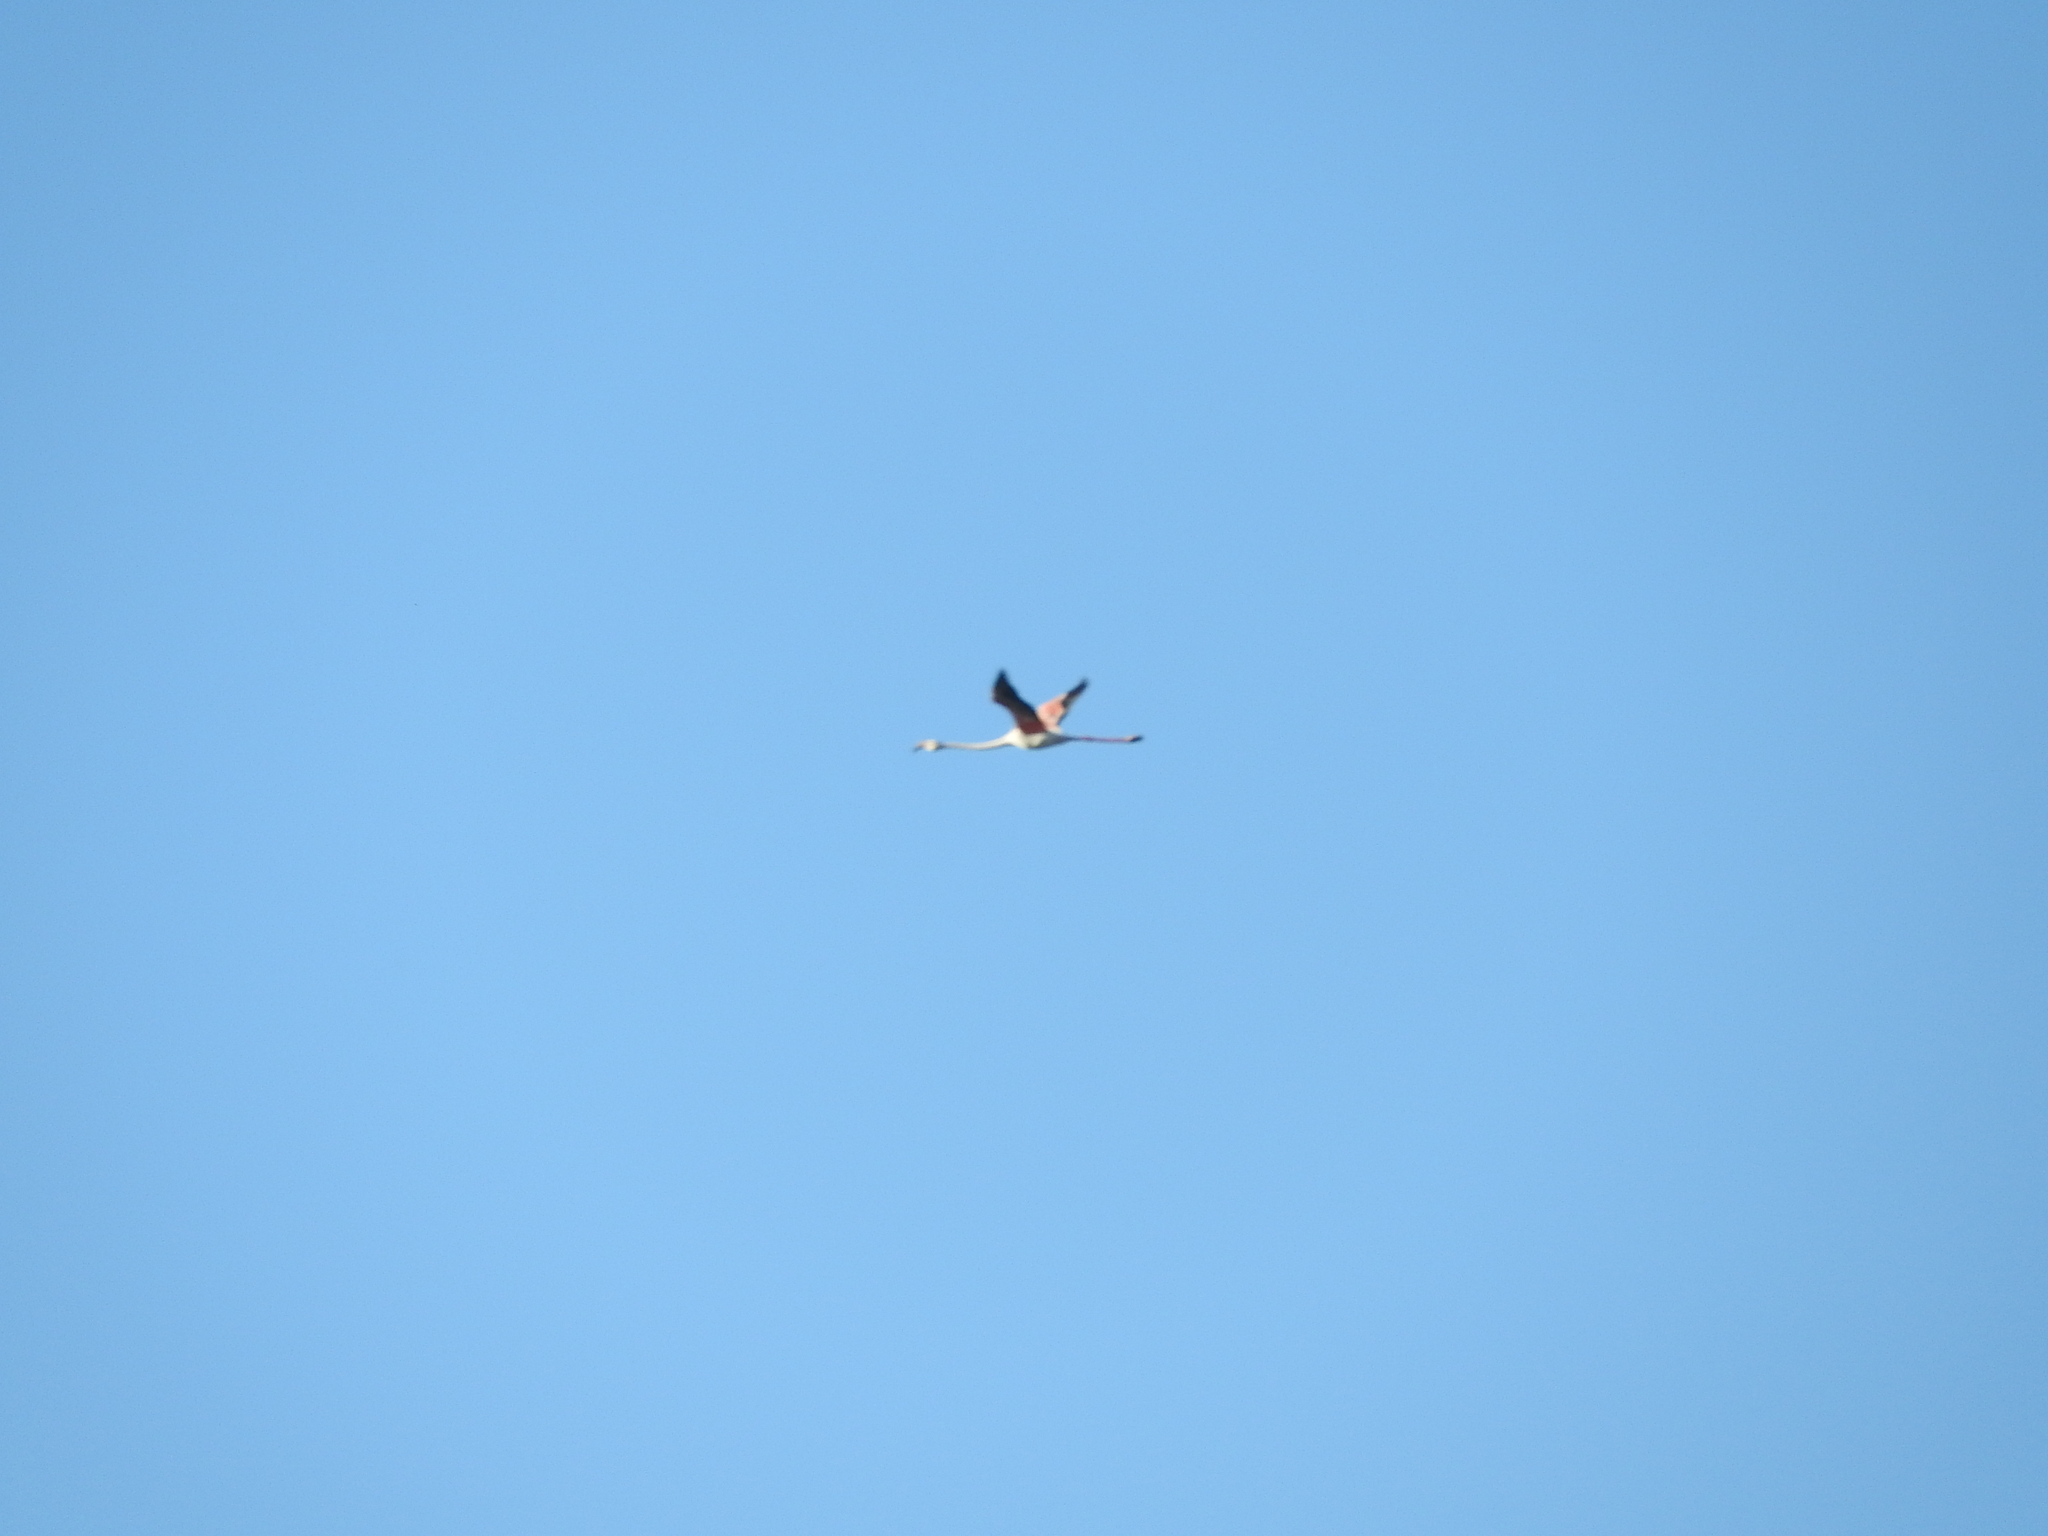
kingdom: Animalia
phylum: Chordata
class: Aves
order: Phoenicopteriformes
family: Phoenicopteridae
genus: Phoenicopterus
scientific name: Phoenicopterus roseus
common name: Greater flamingo
